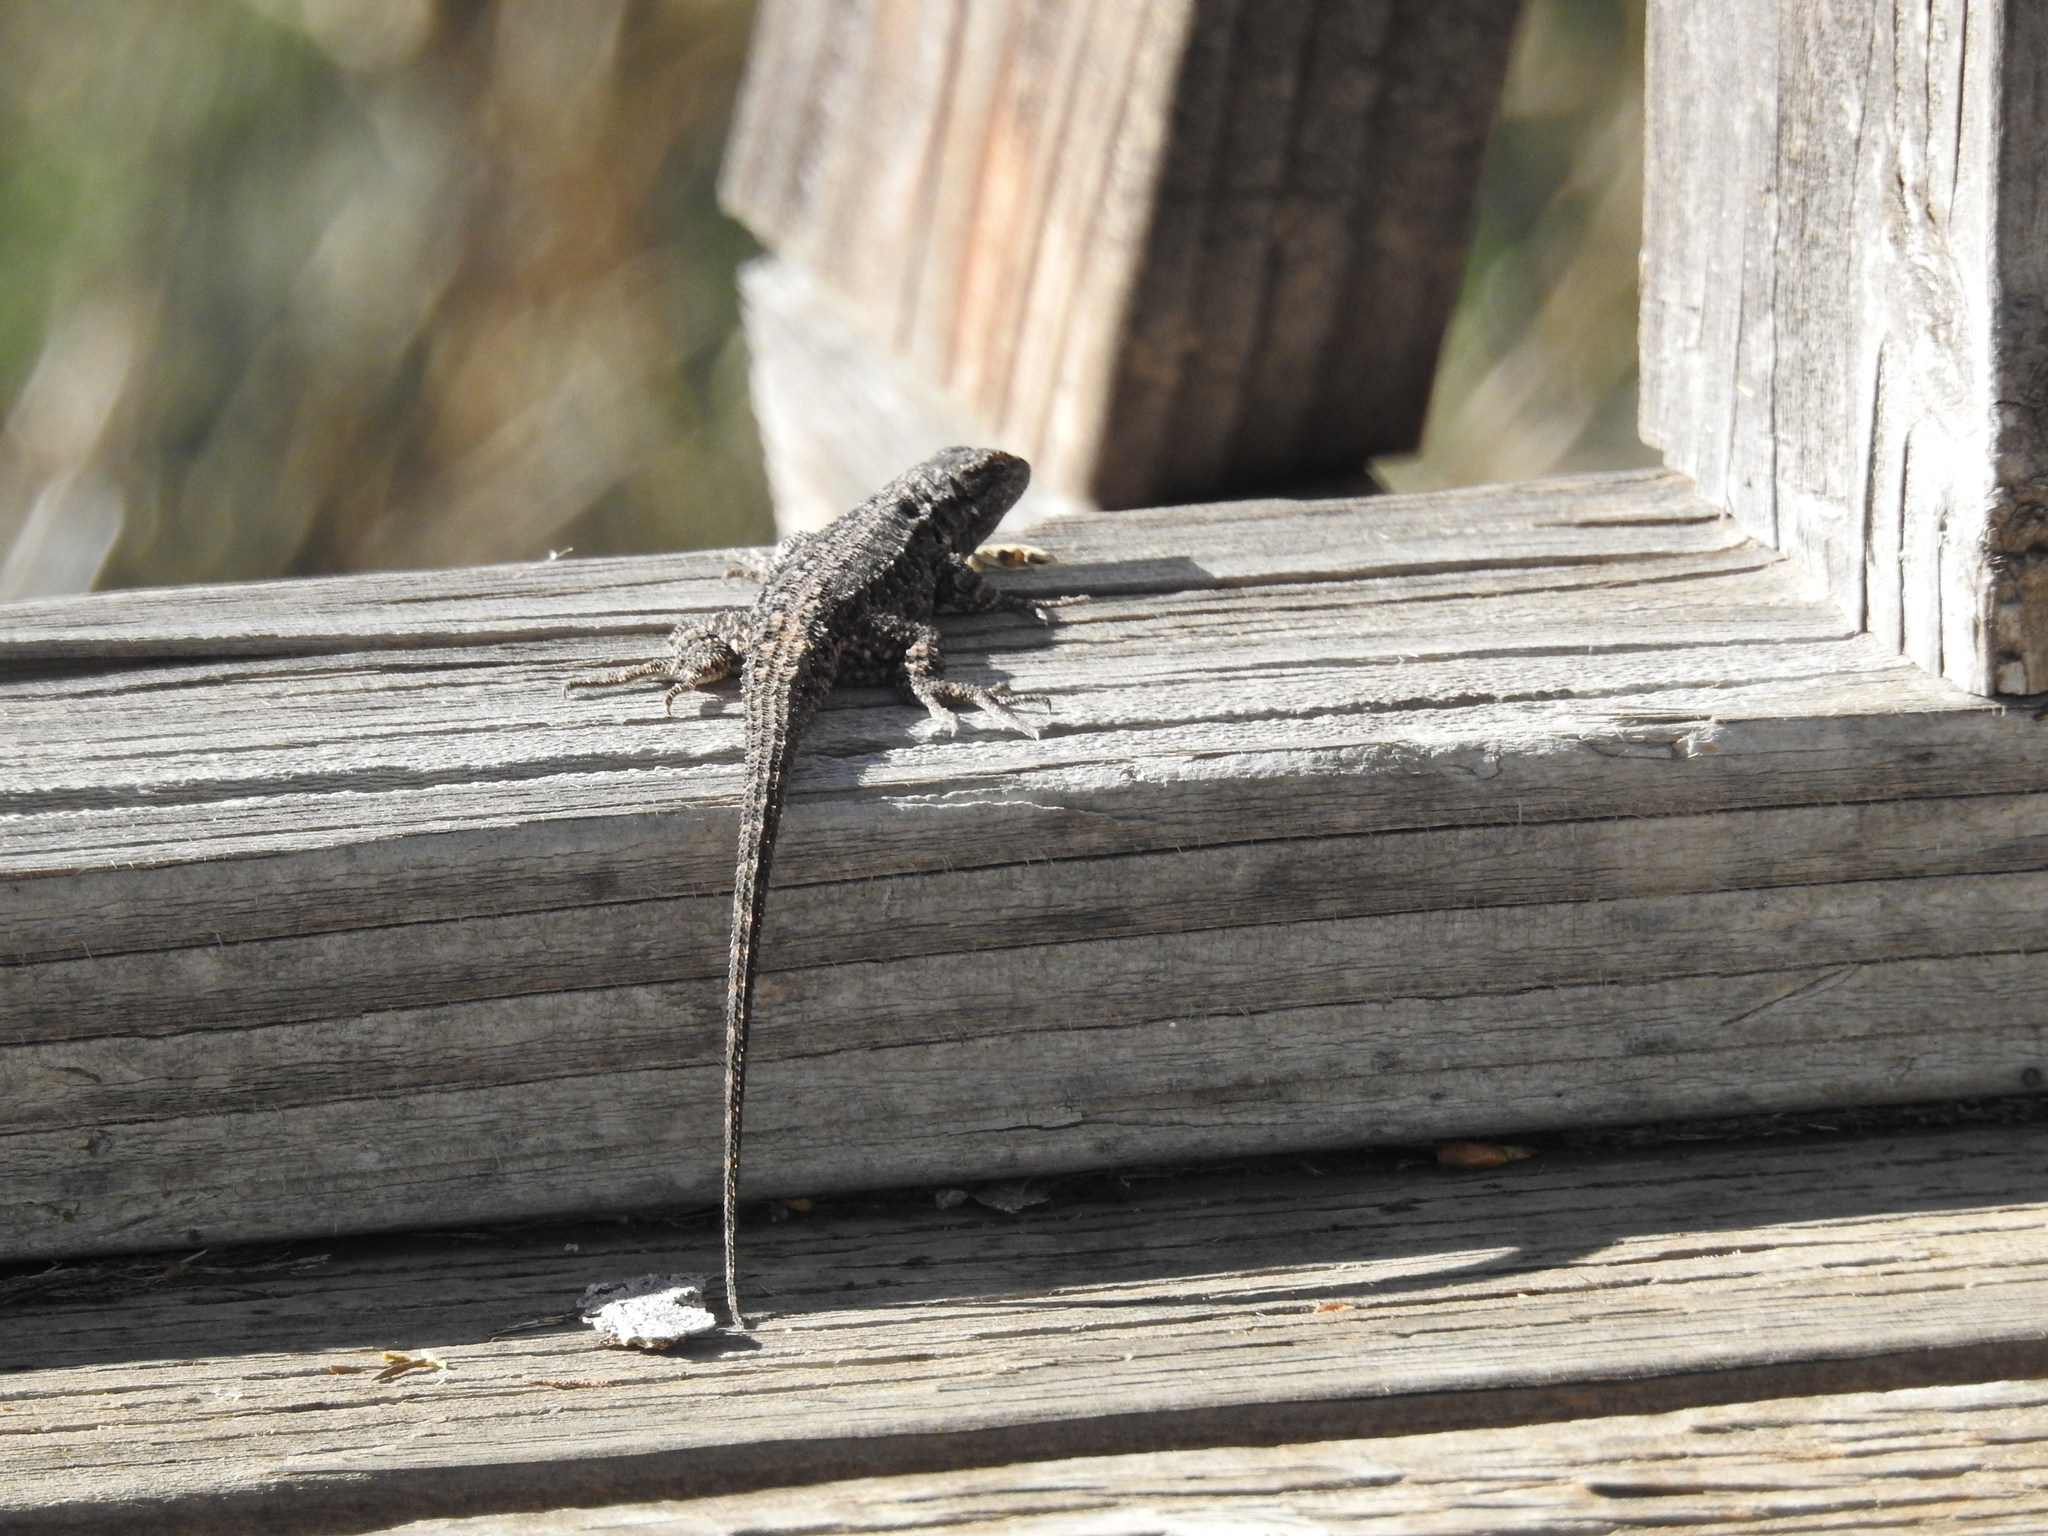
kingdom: Animalia
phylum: Chordata
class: Squamata
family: Phrynosomatidae
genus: Urosaurus
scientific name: Urosaurus ornatus
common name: Ornate tree lizard
